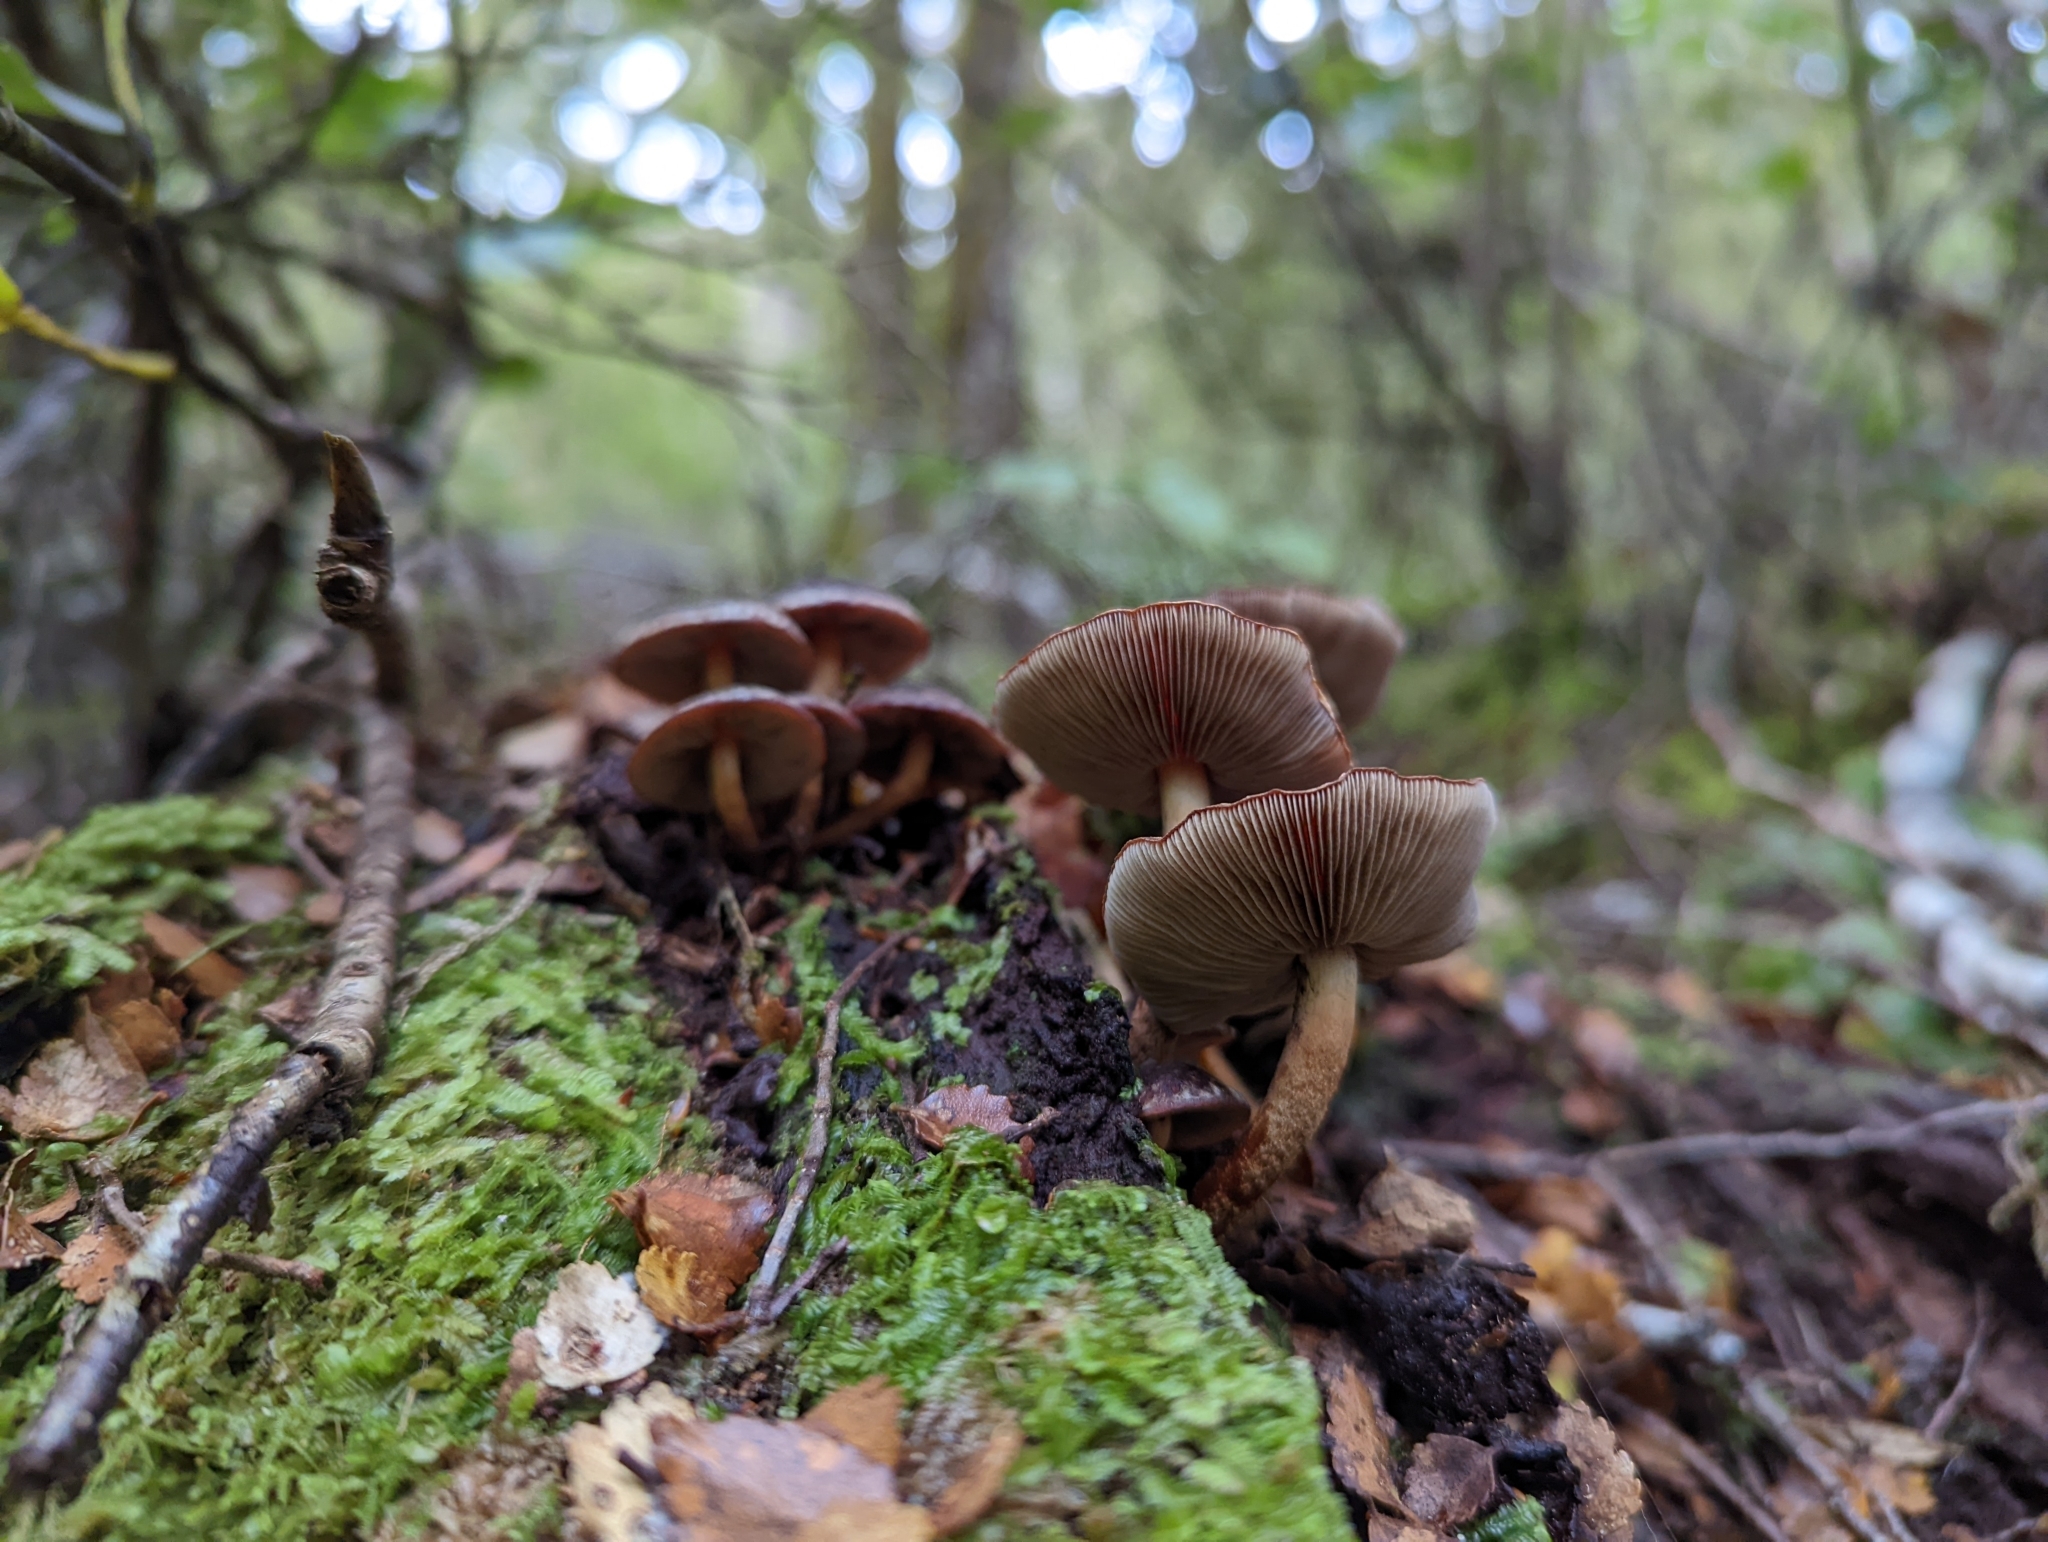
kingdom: Fungi
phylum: Basidiomycota
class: Agaricomycetes
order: Agaricales
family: Strophariaceae
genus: Hypholoma
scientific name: Hypholoma brunneum
